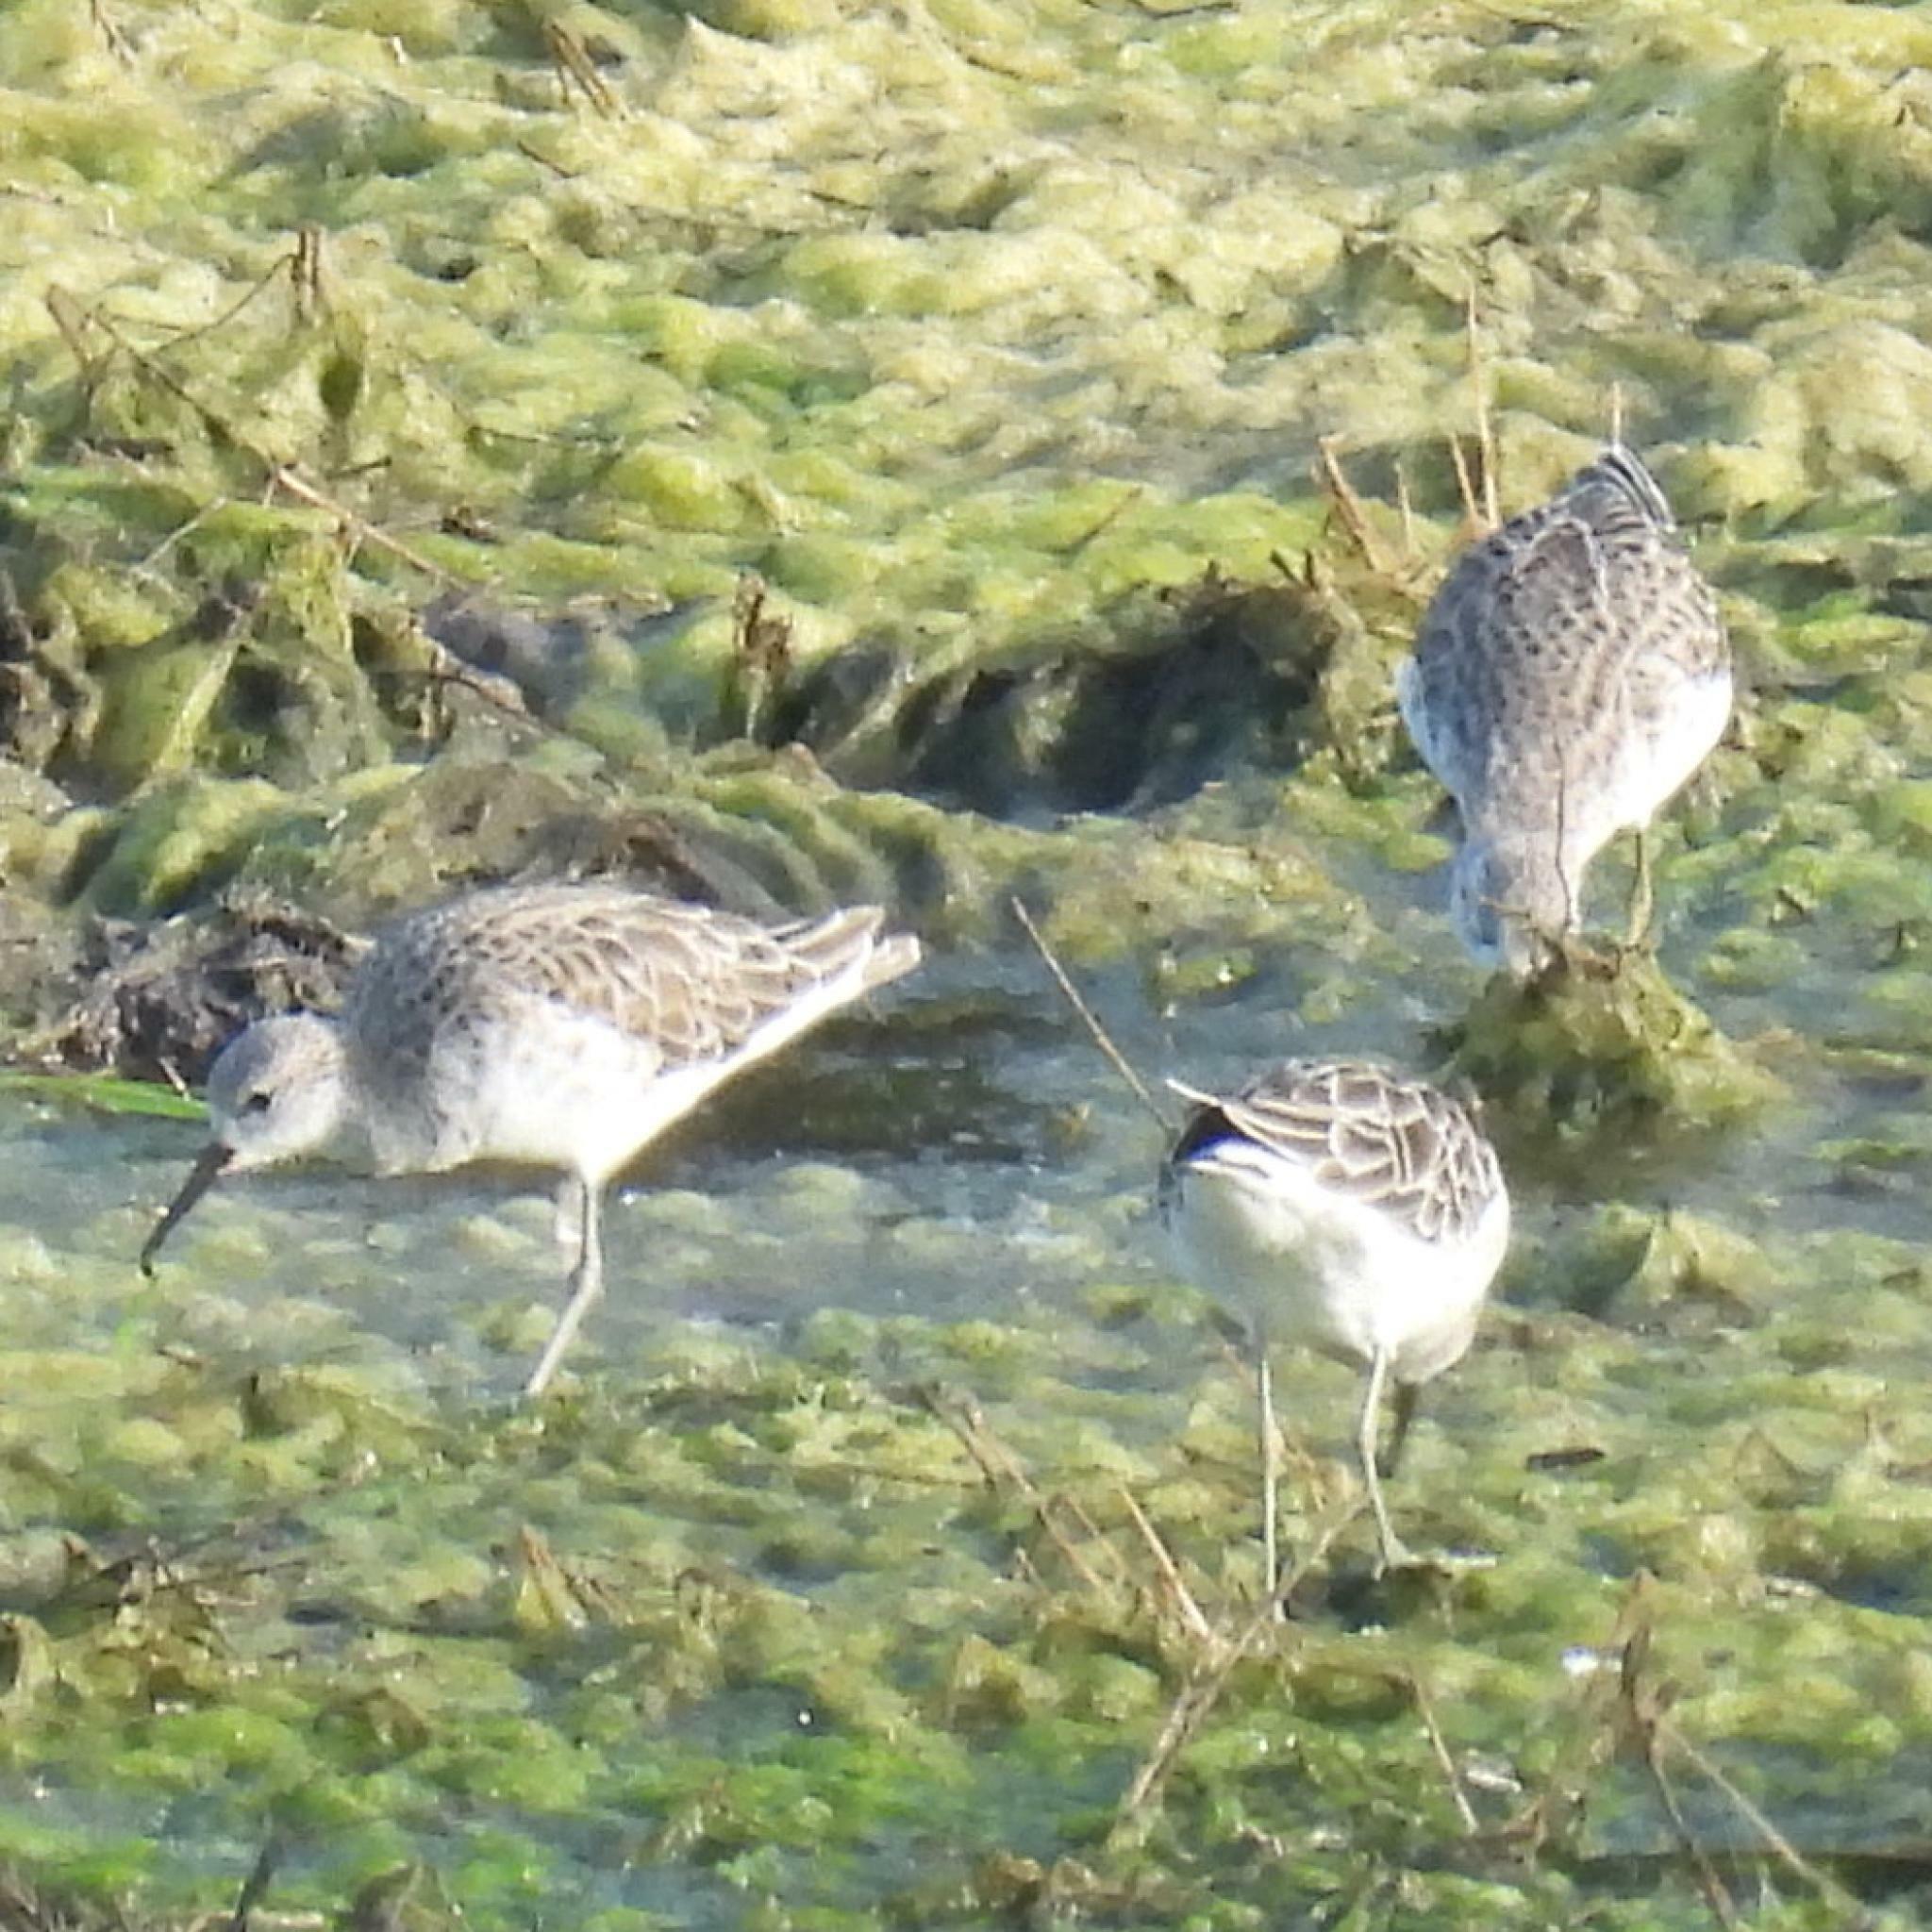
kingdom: Animalia
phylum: Chordata
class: Aves
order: Charadriiformes
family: Scolopacidae
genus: Calidris
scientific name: Calidris pugnax
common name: Ruff
